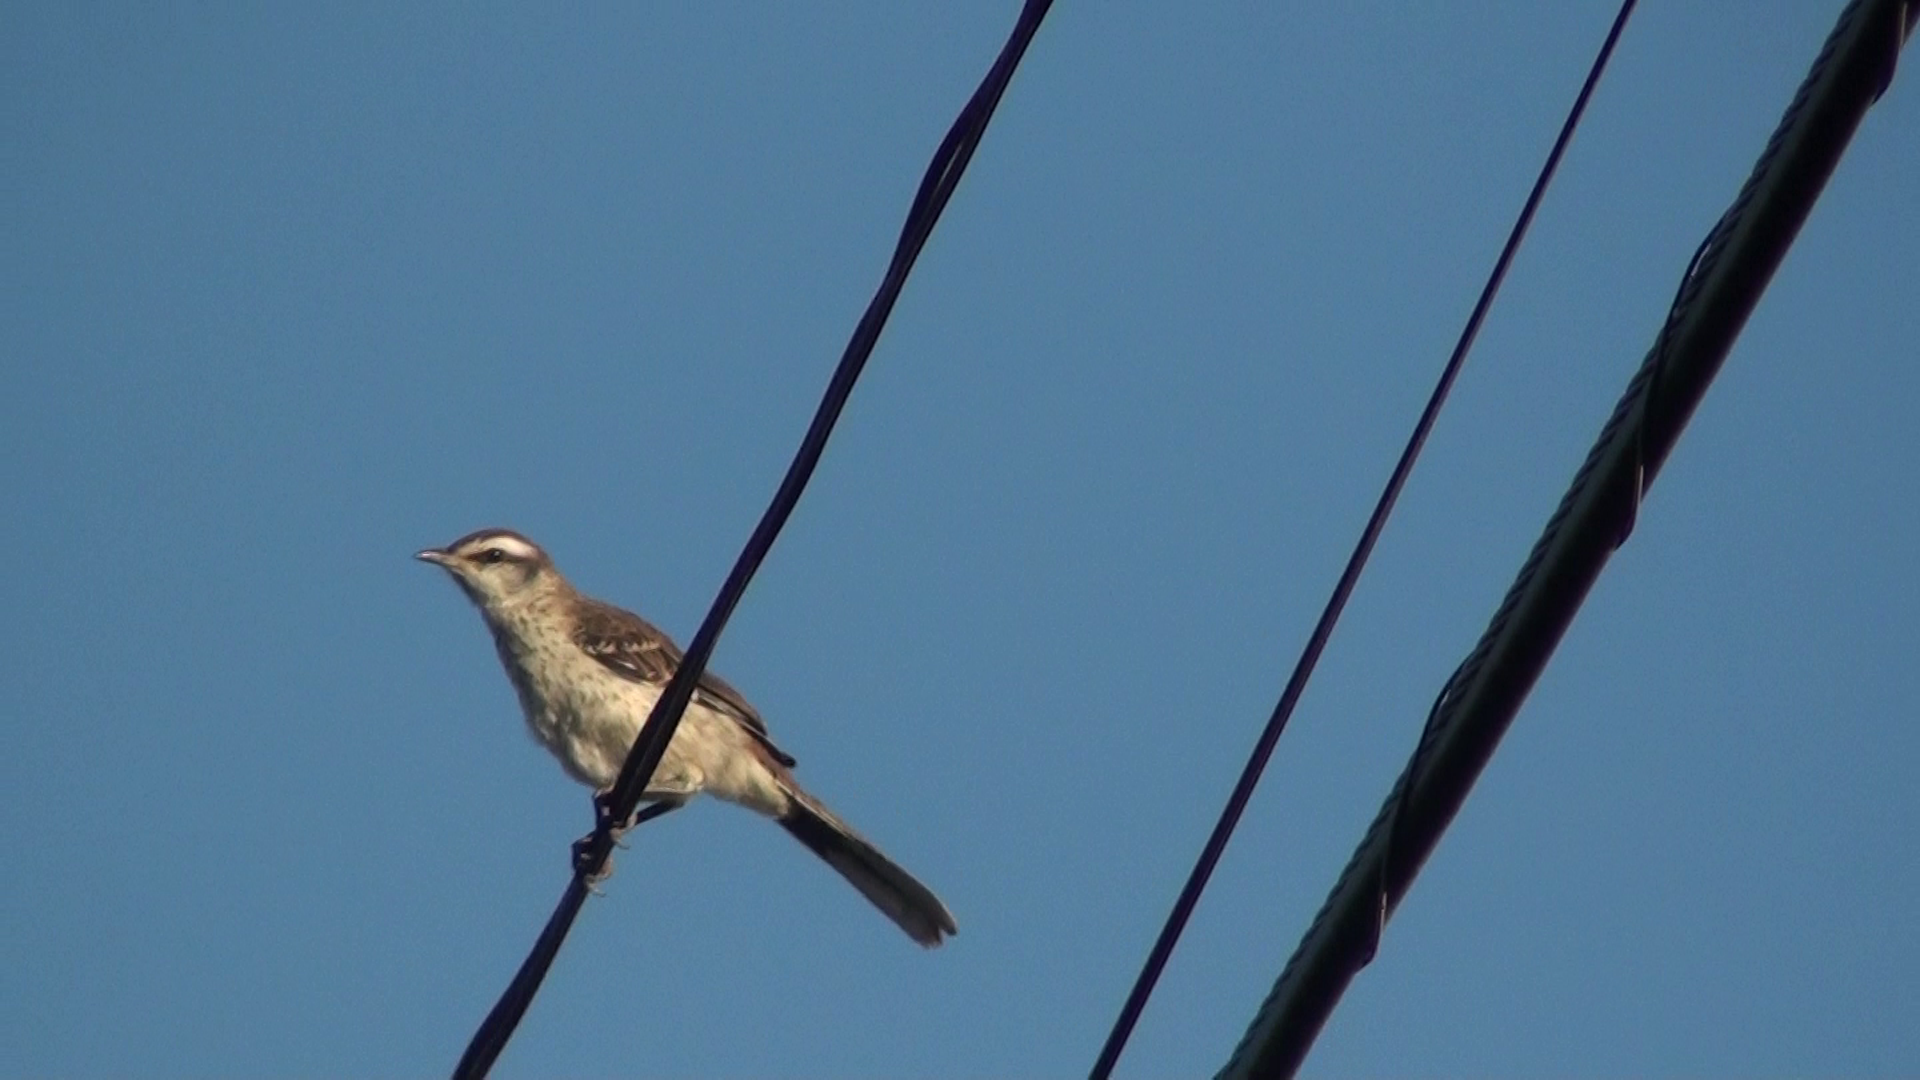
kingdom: Animalia
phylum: Chordata
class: Aves
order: Passeriformes
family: Mimidae
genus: Mimus
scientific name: Mimus saturninus
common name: Chalk-browed mockingbird
